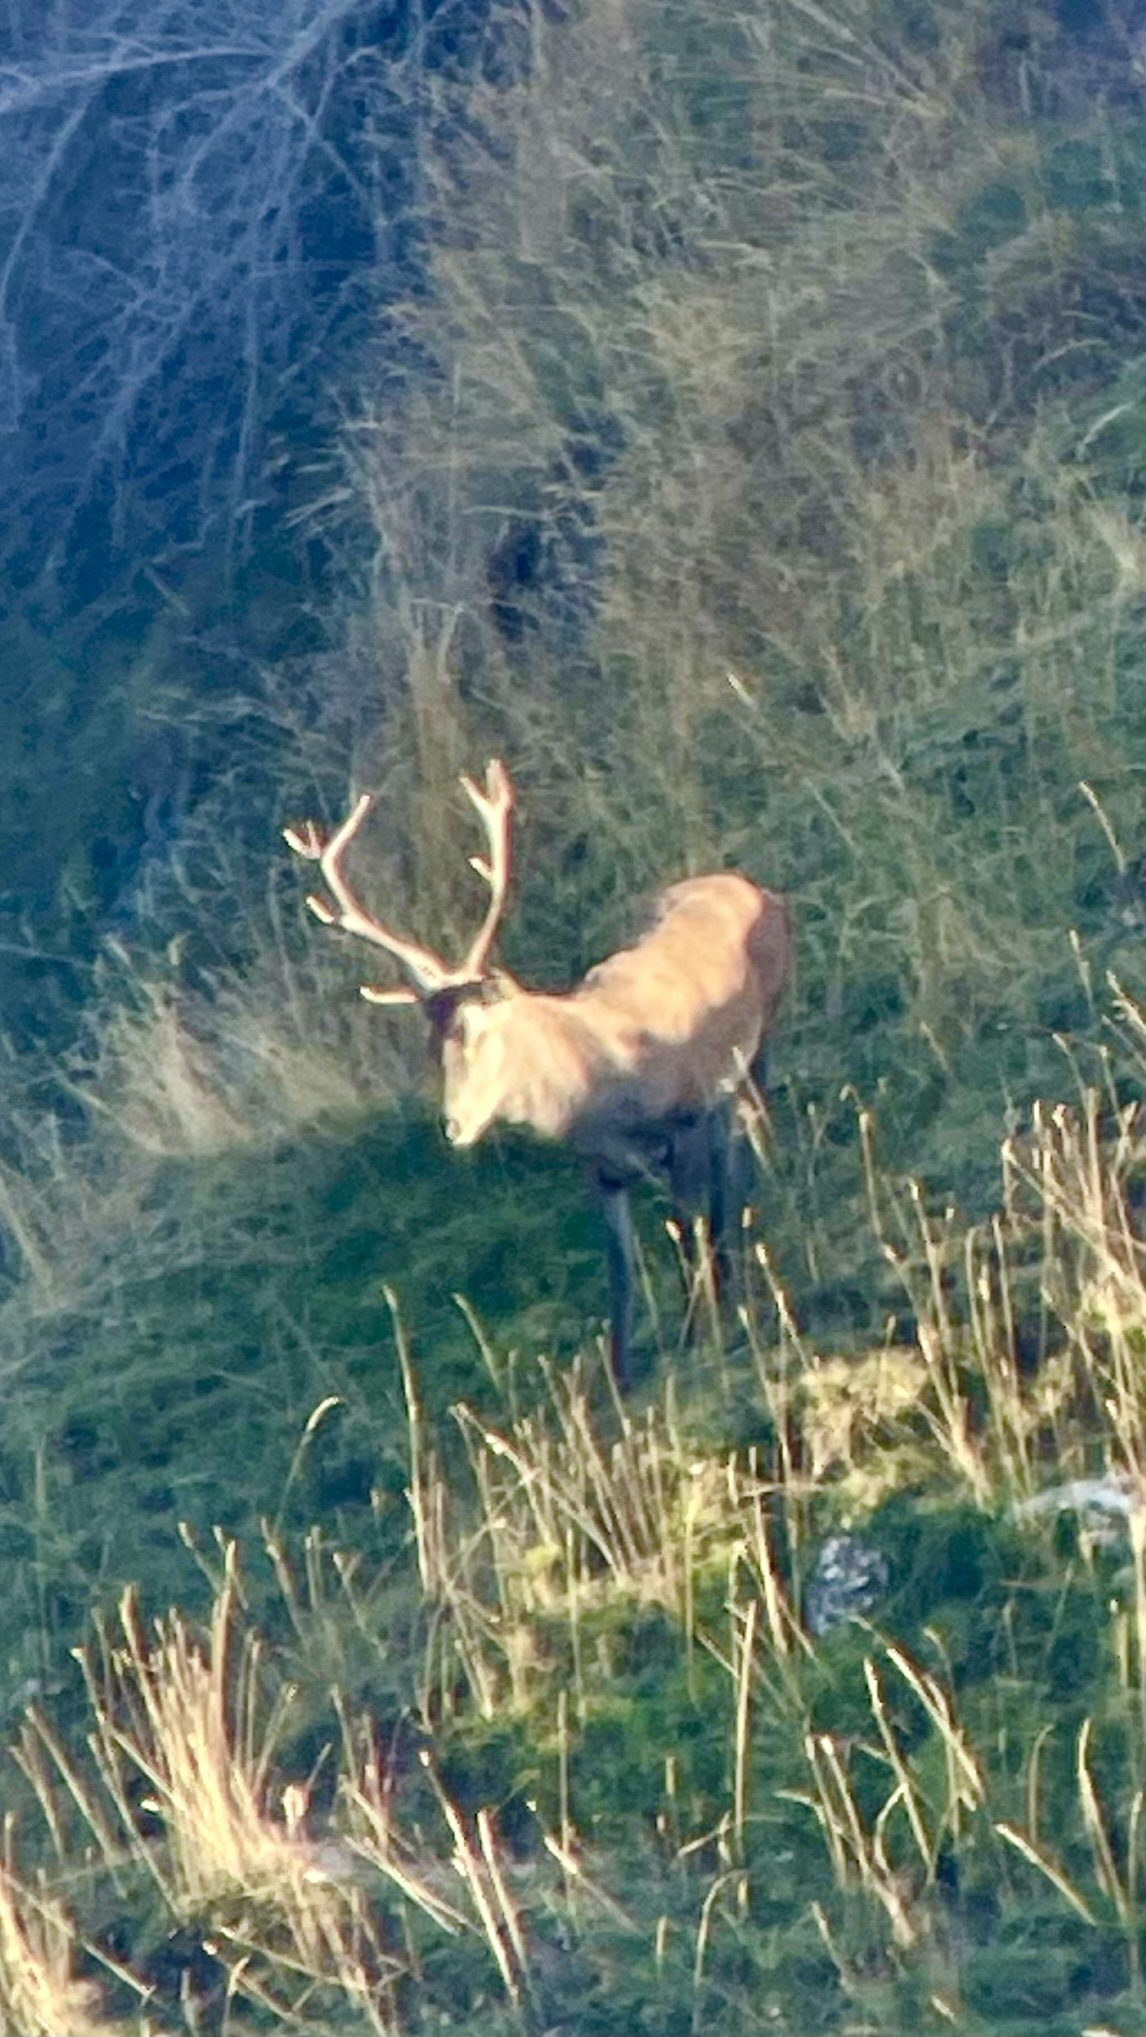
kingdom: Animalia
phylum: Chordata
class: Mammalia
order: Artiodactyla
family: Cervidae
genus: Cervus
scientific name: Cervus elaphus
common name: Red deer
